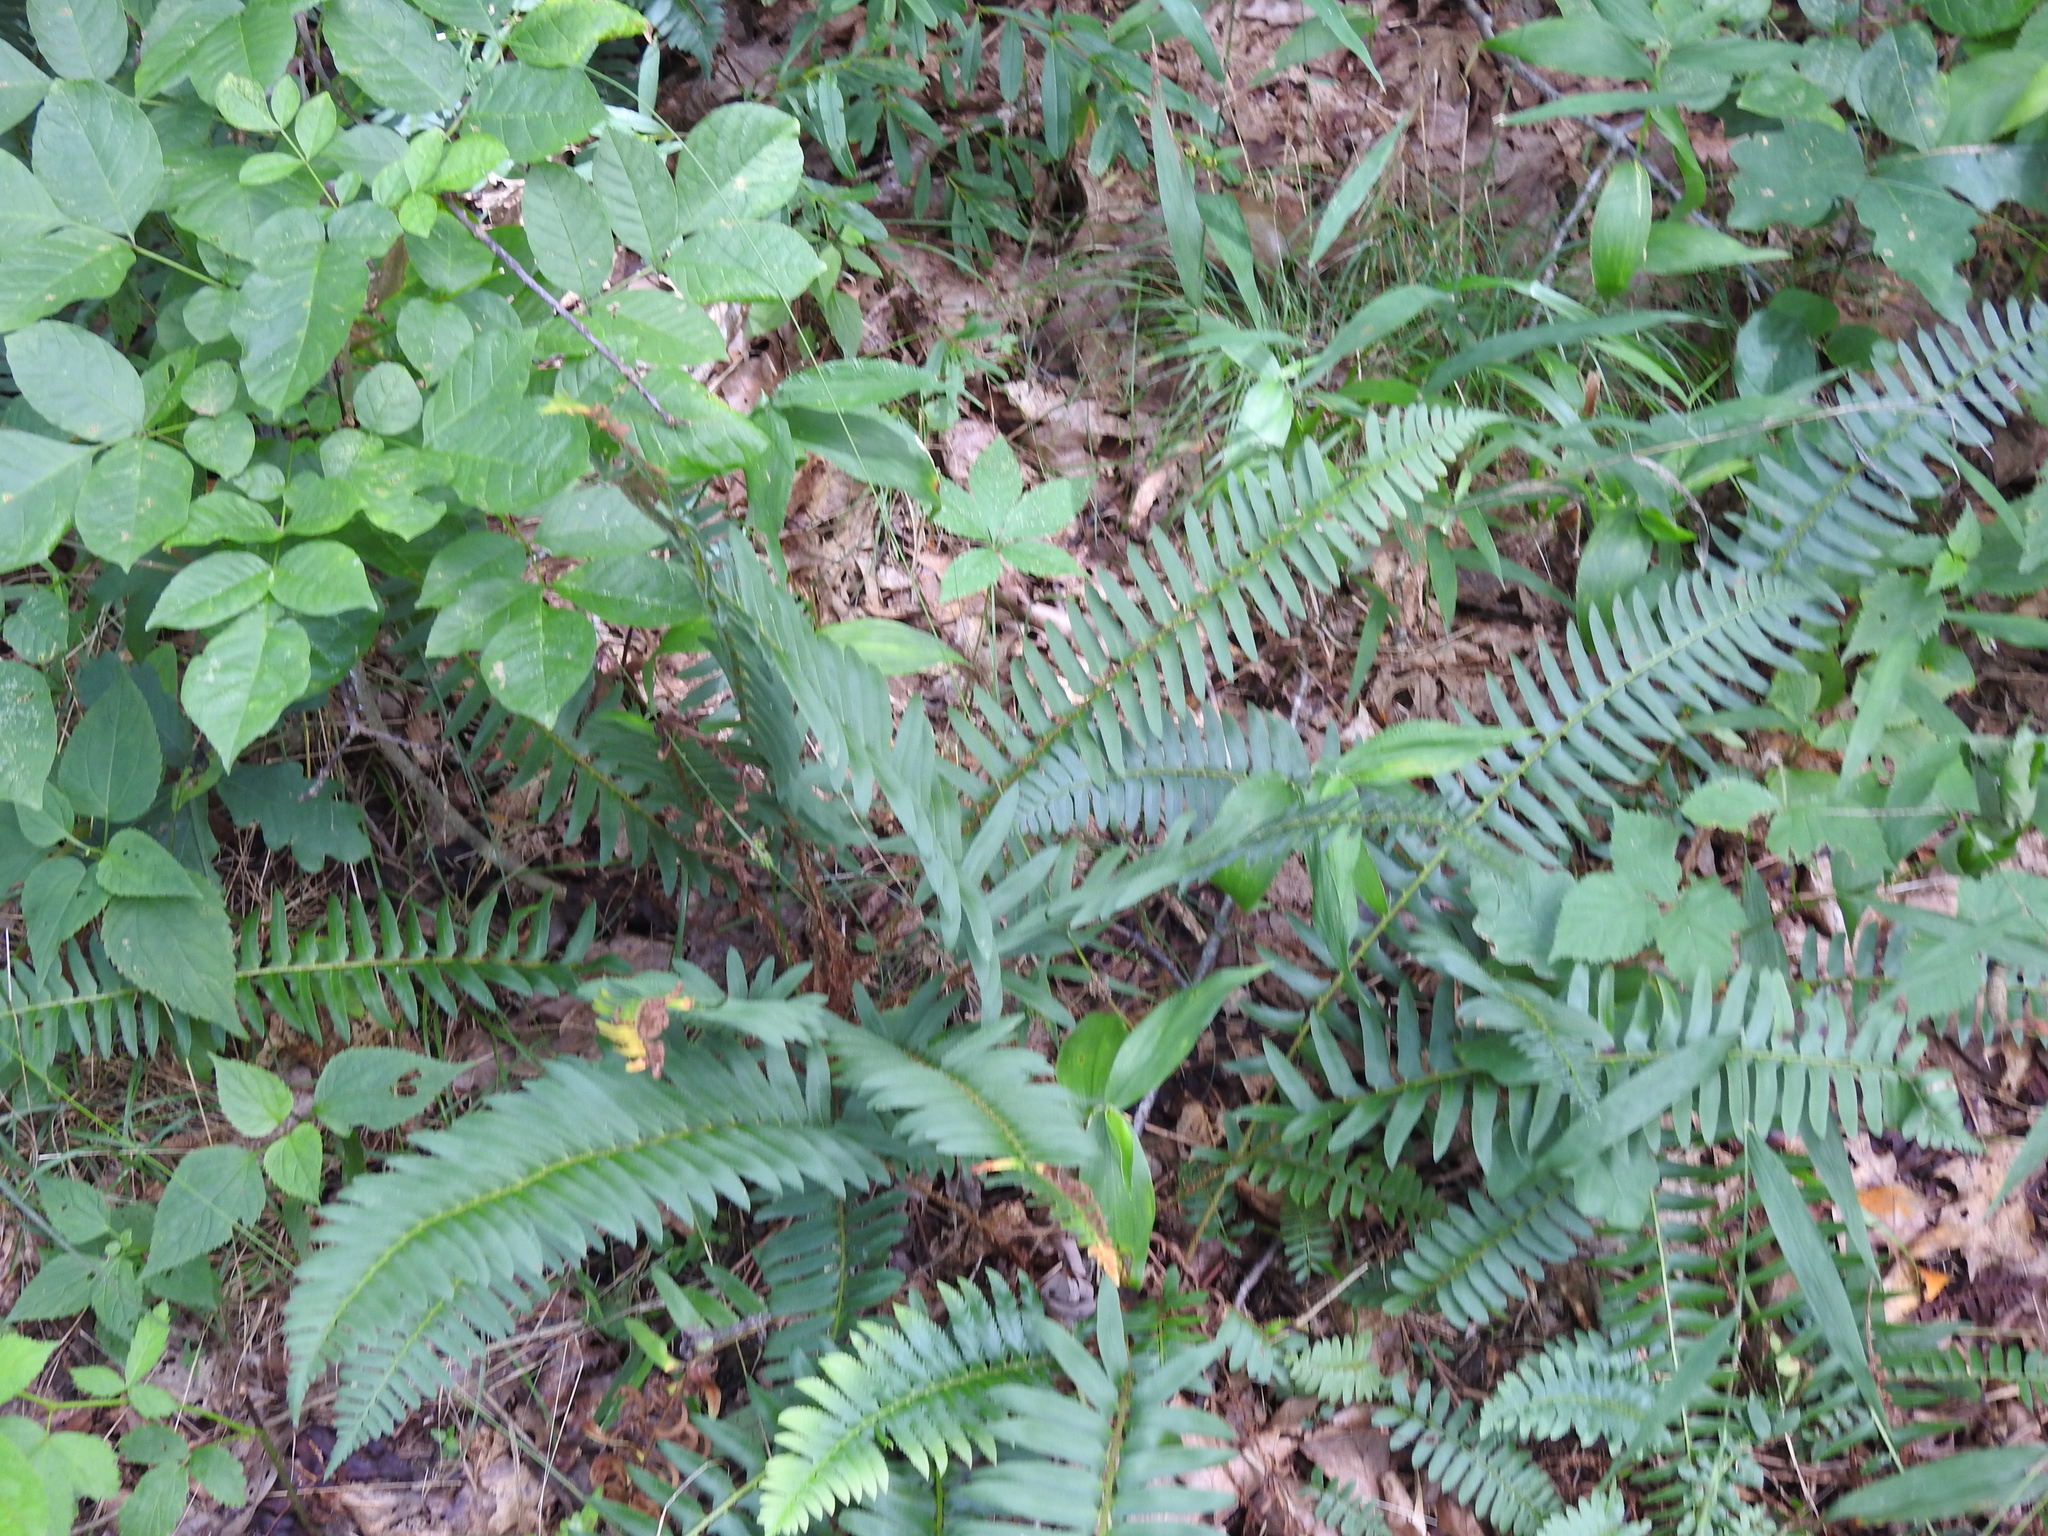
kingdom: Plantae
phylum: Tracheophyta
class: Polypodiopsida
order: Polypodiales
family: Dryopteridaceae
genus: Polystichum
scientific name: Polystichum acrostichoides
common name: Christmas fern
